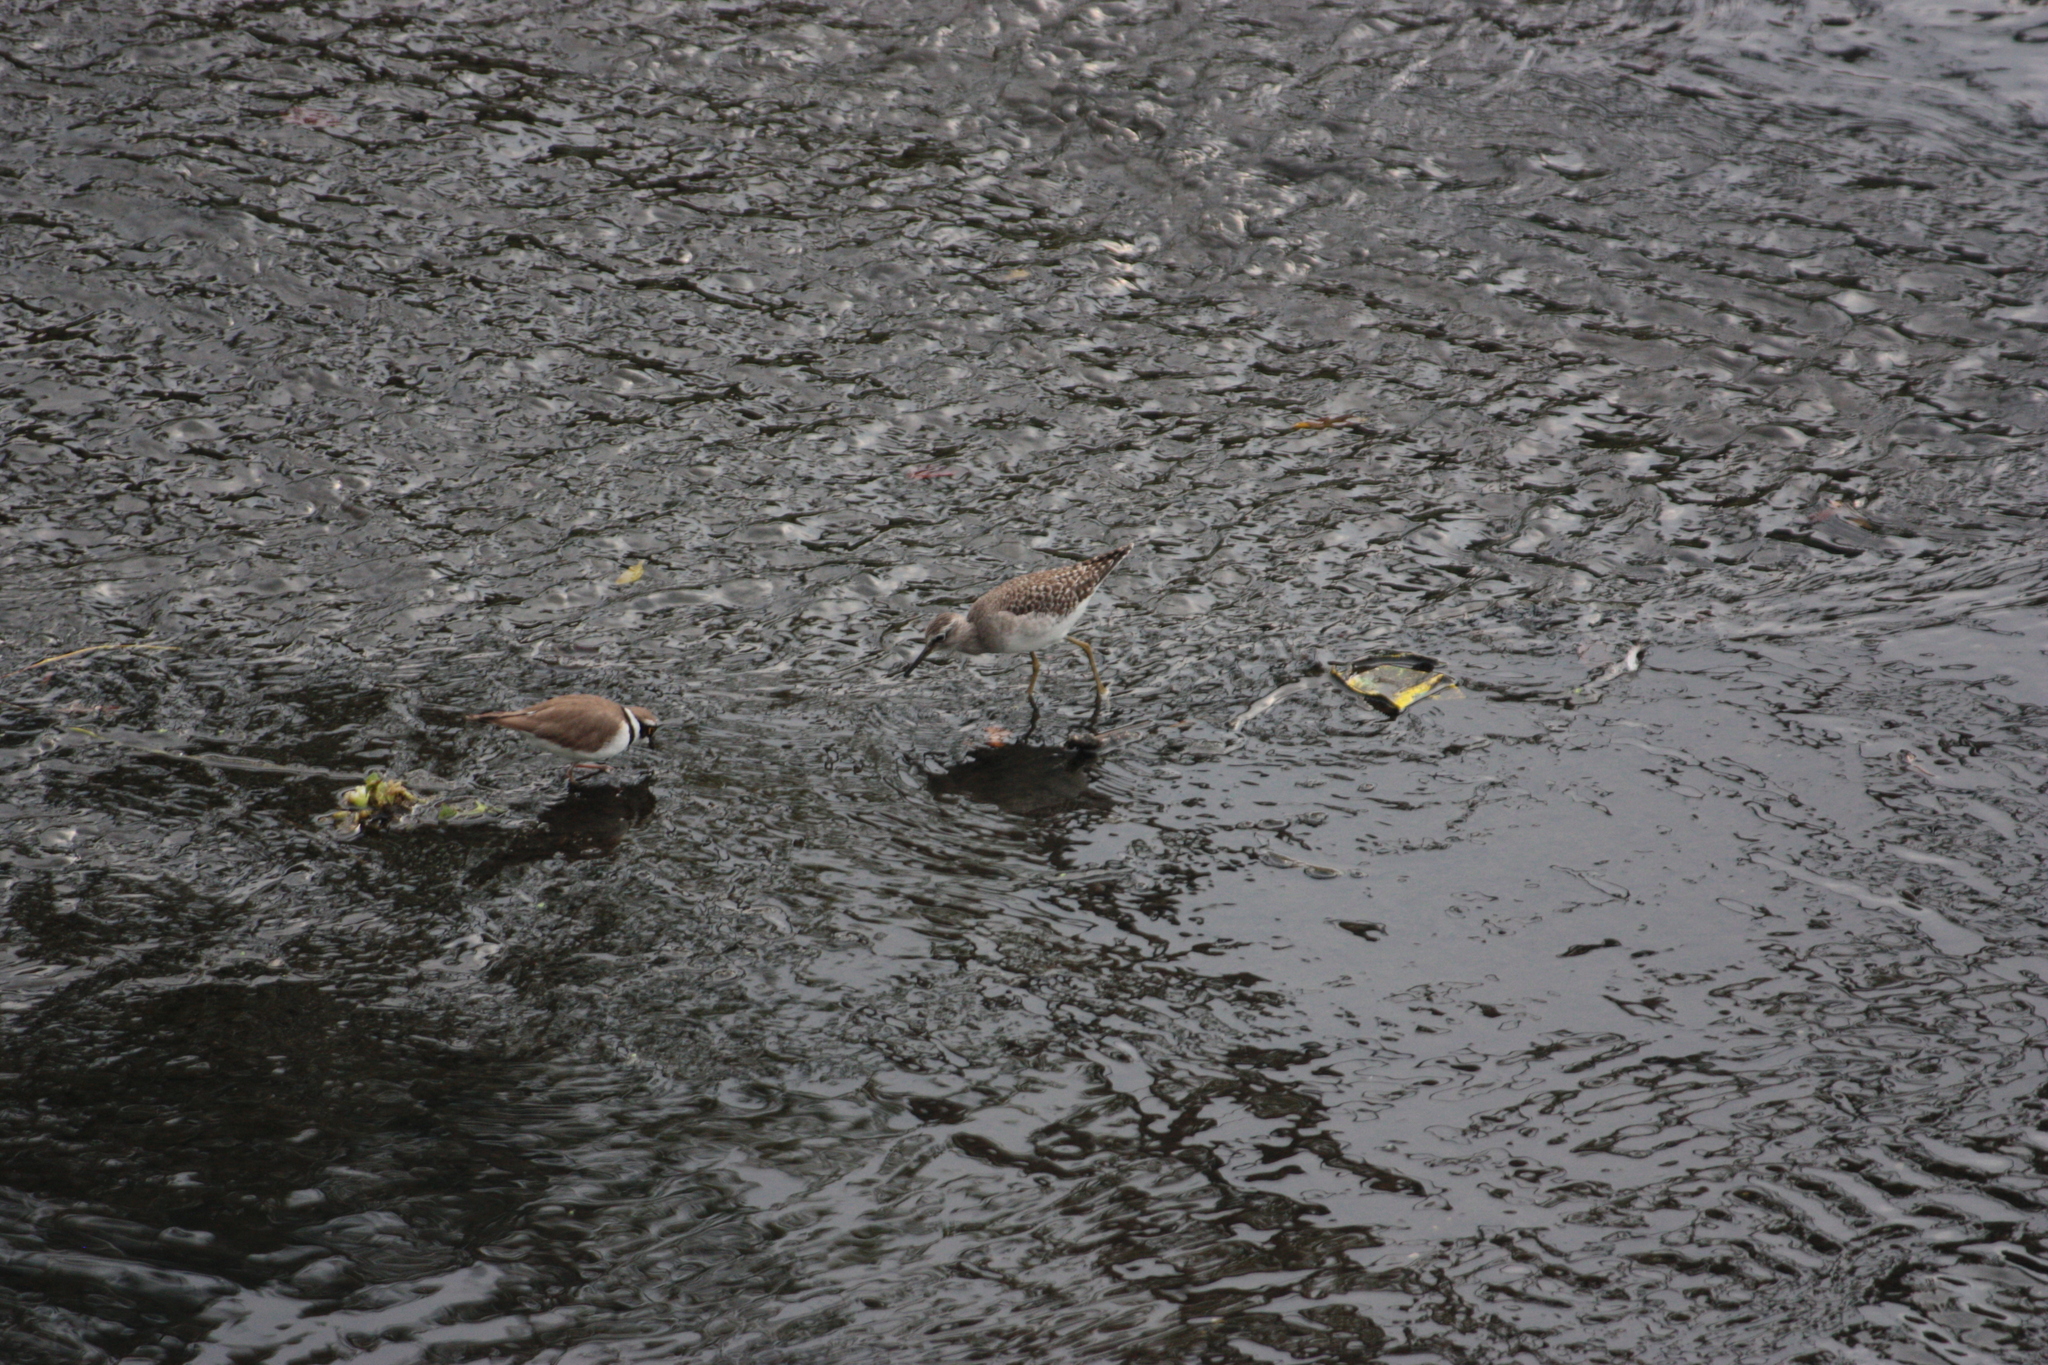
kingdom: Animalia
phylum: Chordata
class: Aves
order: Charadriiformes
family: Scolopacidae
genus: Tringa
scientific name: Tringa glareola
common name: Wood sandpiper
